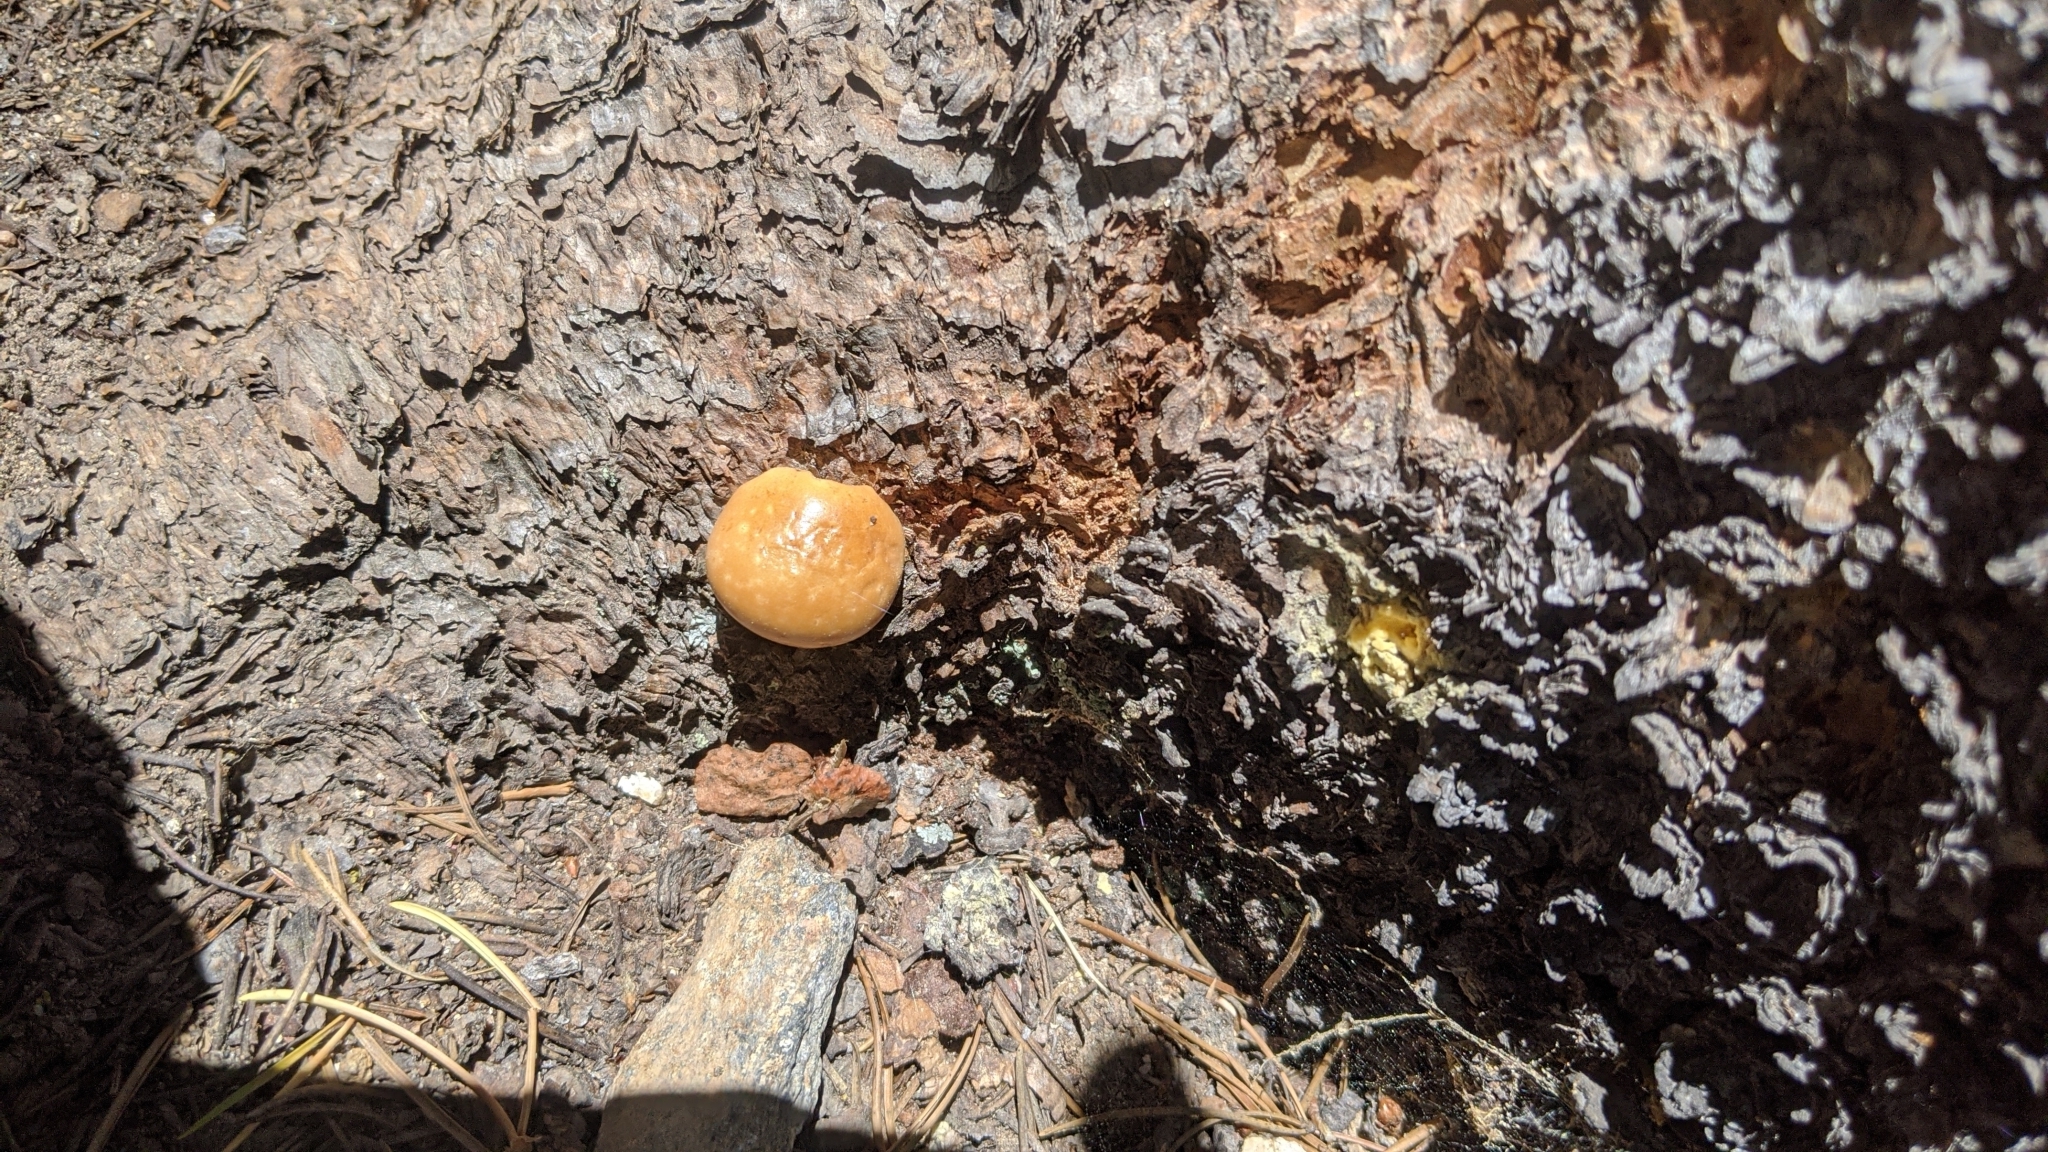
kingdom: Fungi
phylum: Basidiomycota
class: Agaricomycetes
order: Polyporales
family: Polyporaceae
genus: Cryptoporus
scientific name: Cryptoporus volvatus
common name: Veiled polypore
